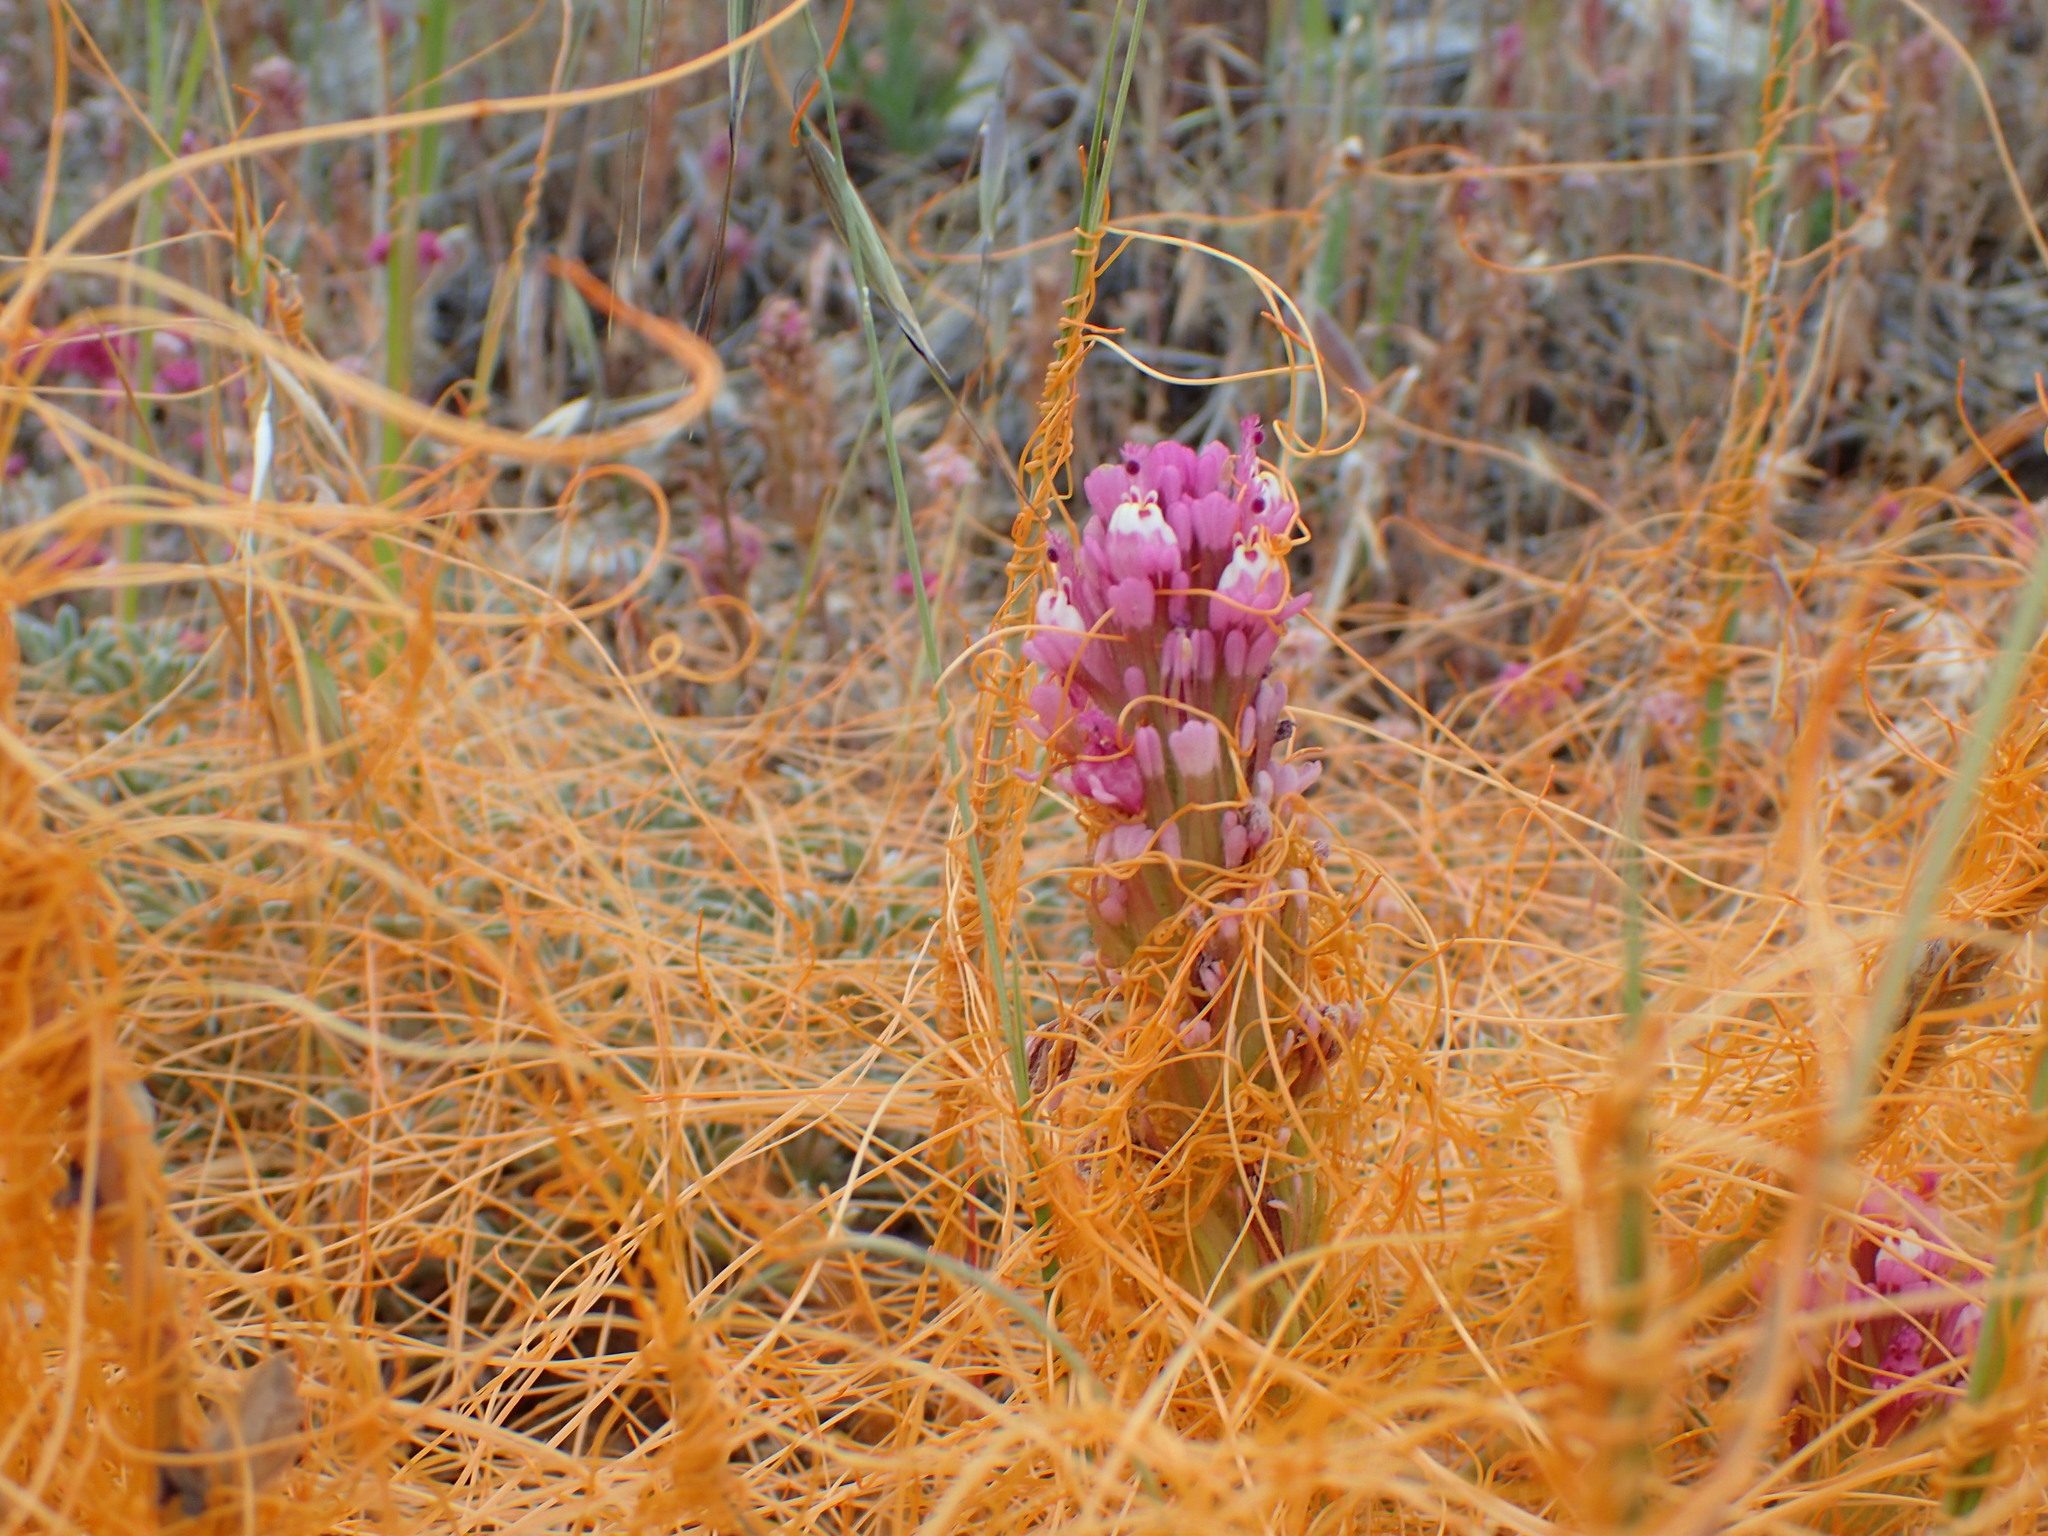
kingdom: Plantae
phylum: Tracheophyta
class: Magnoliopsida
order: Lamiales
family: Orobanchaceae
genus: Castilleja
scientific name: Castilleja exserta
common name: Purple owl-clover
